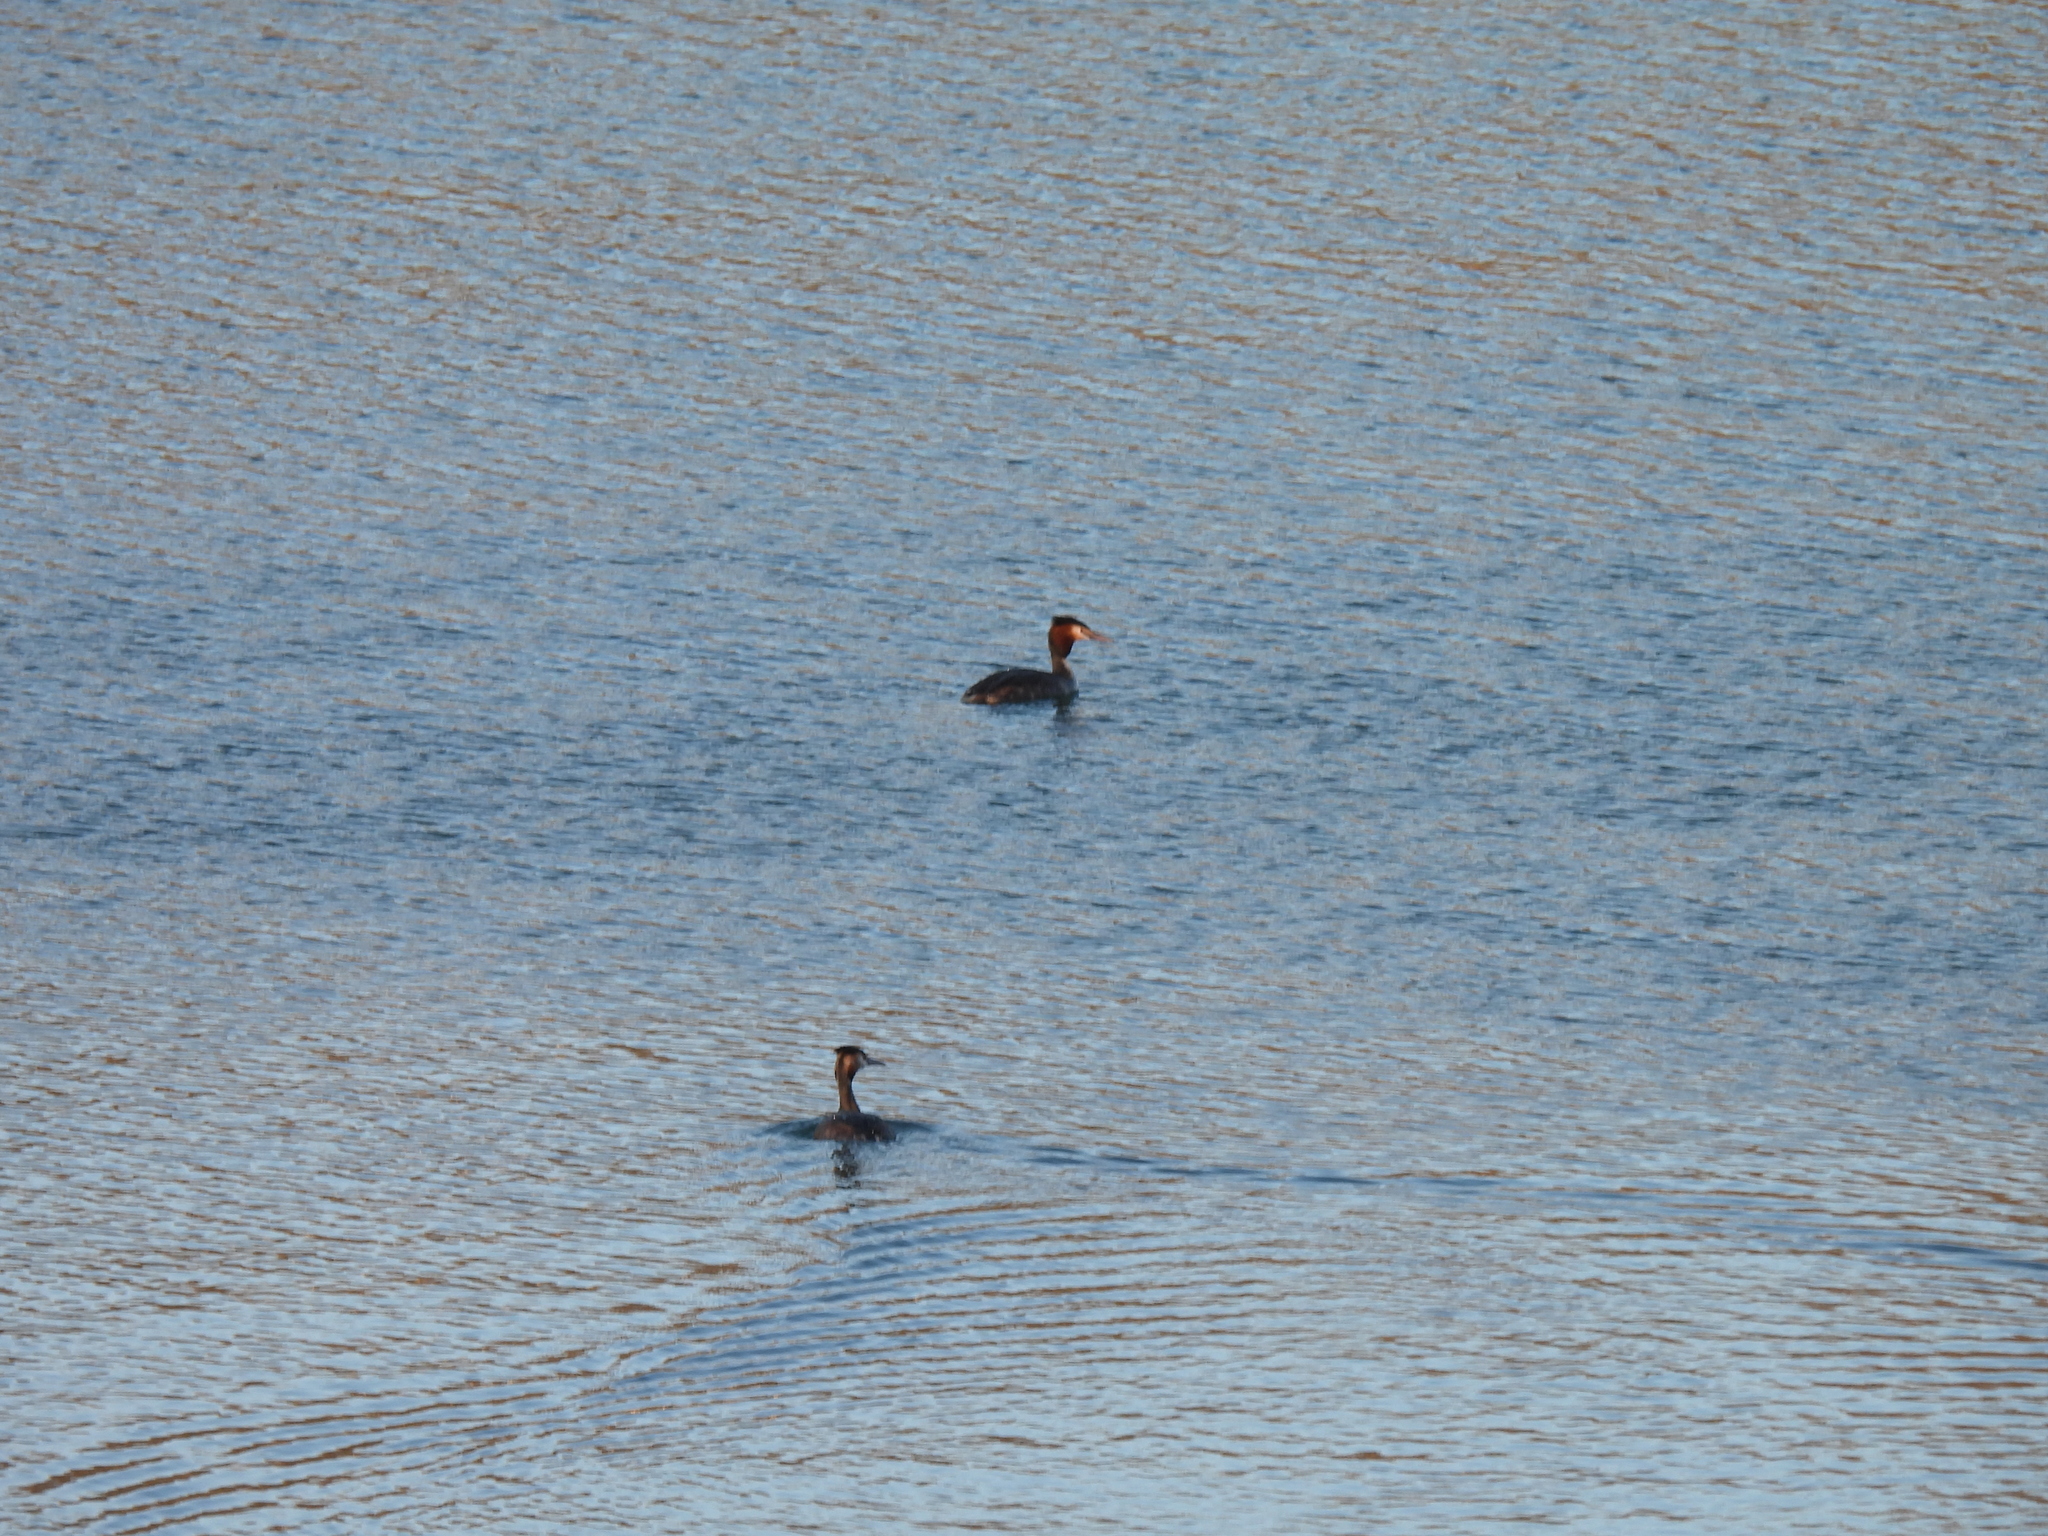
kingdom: Animalia
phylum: Chordata
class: Aves
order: Podicipediformes
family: Podicipedidae
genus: Podiceps
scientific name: Podiceps cristatus
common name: Great crested grebe
